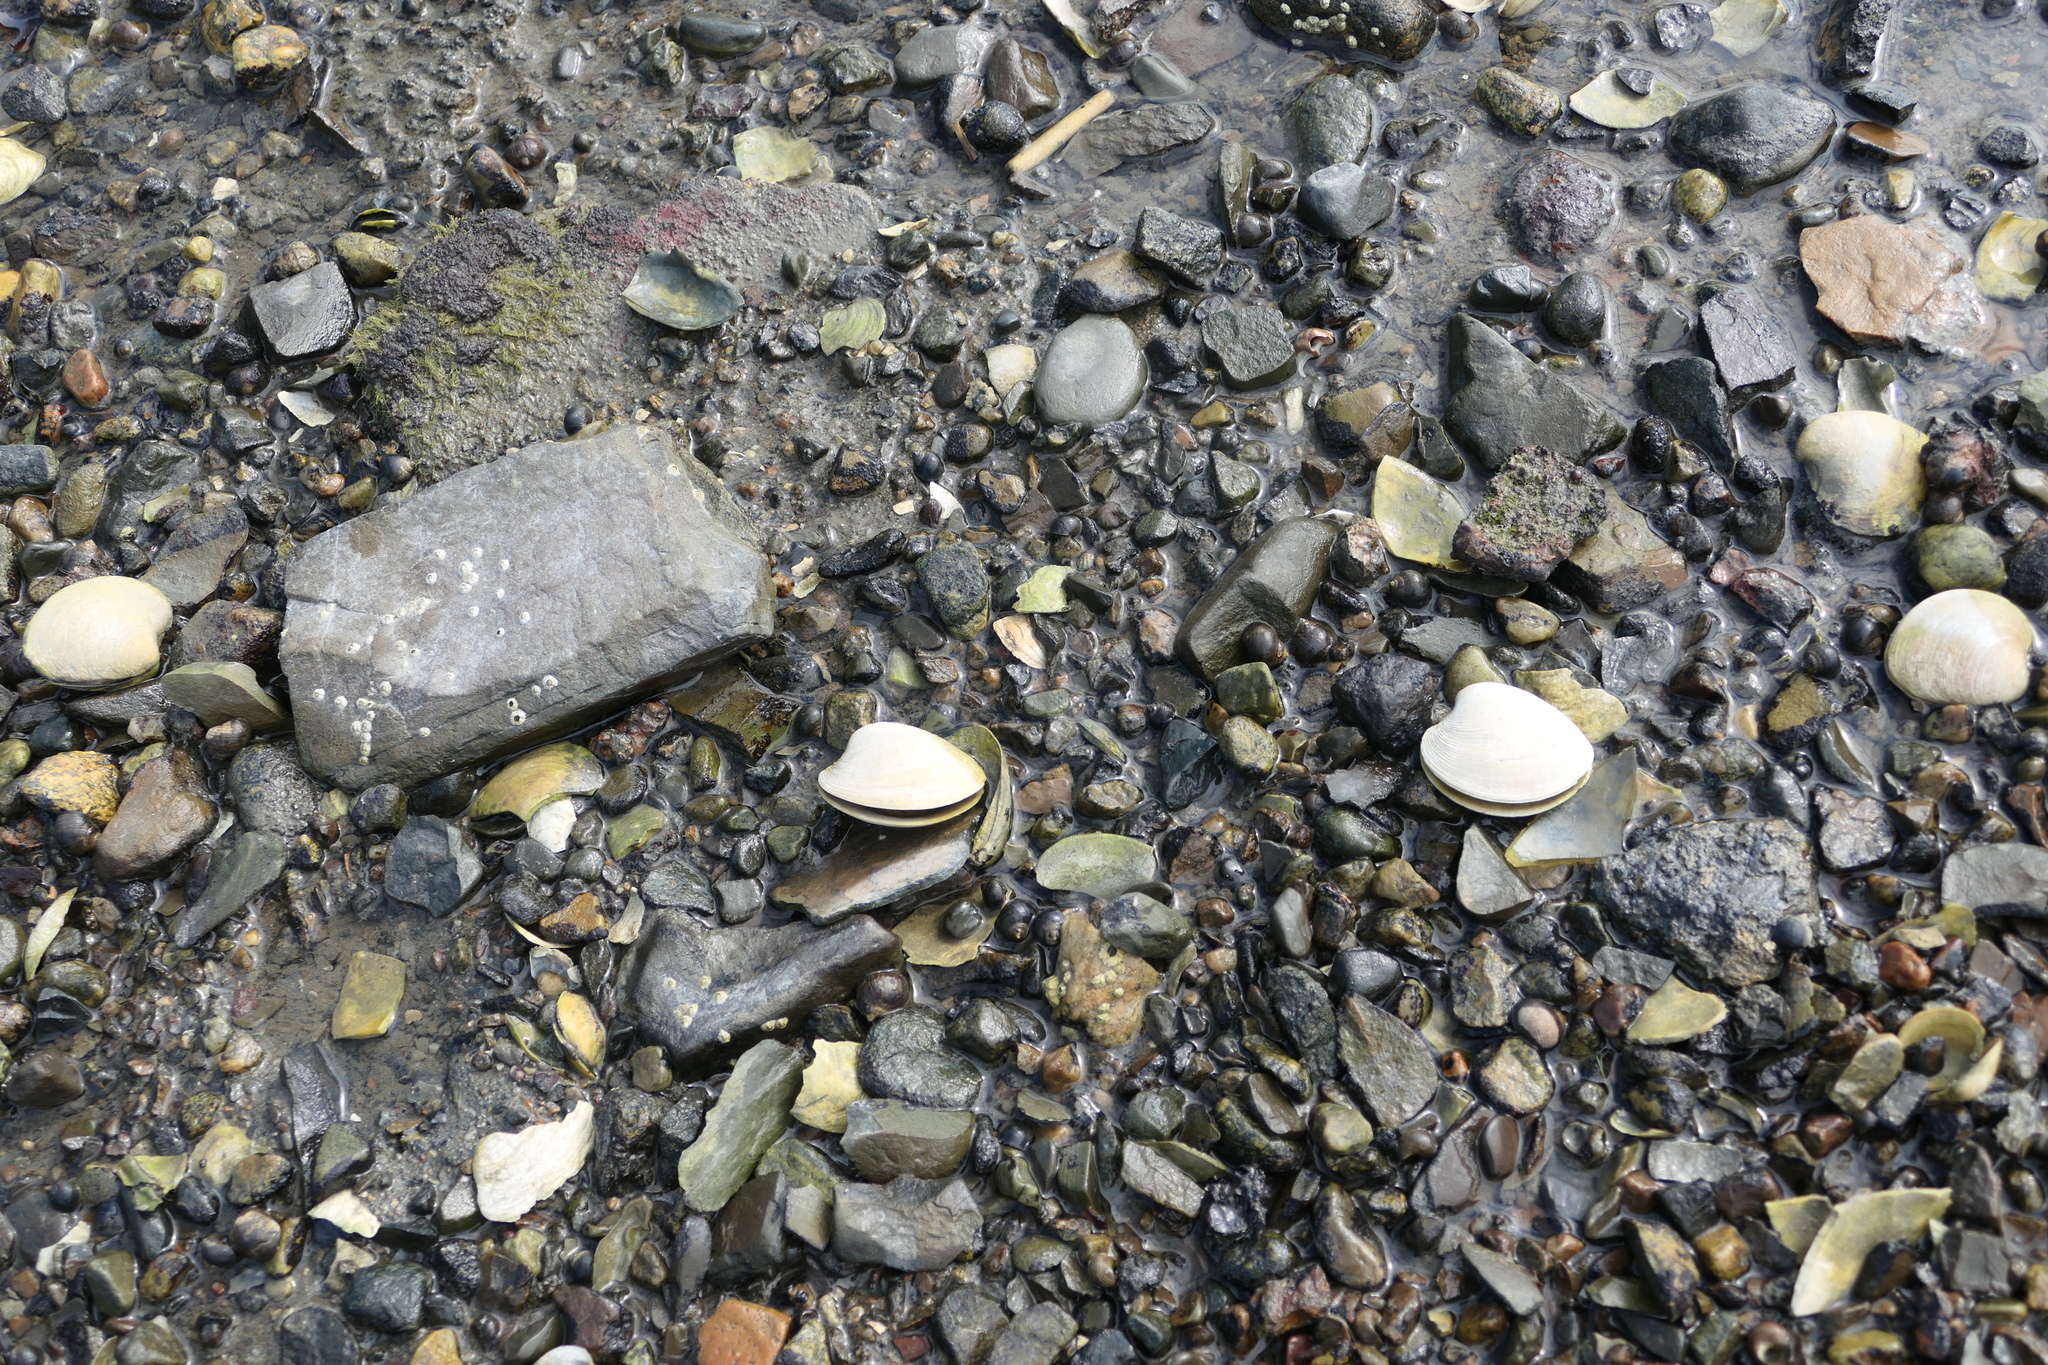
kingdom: Animalia
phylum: Mollusca
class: Bivalvia
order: Venerida
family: Veneridae
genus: Mercenaria
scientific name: Mercenaria mercenaria
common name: American hard-shelled clam
